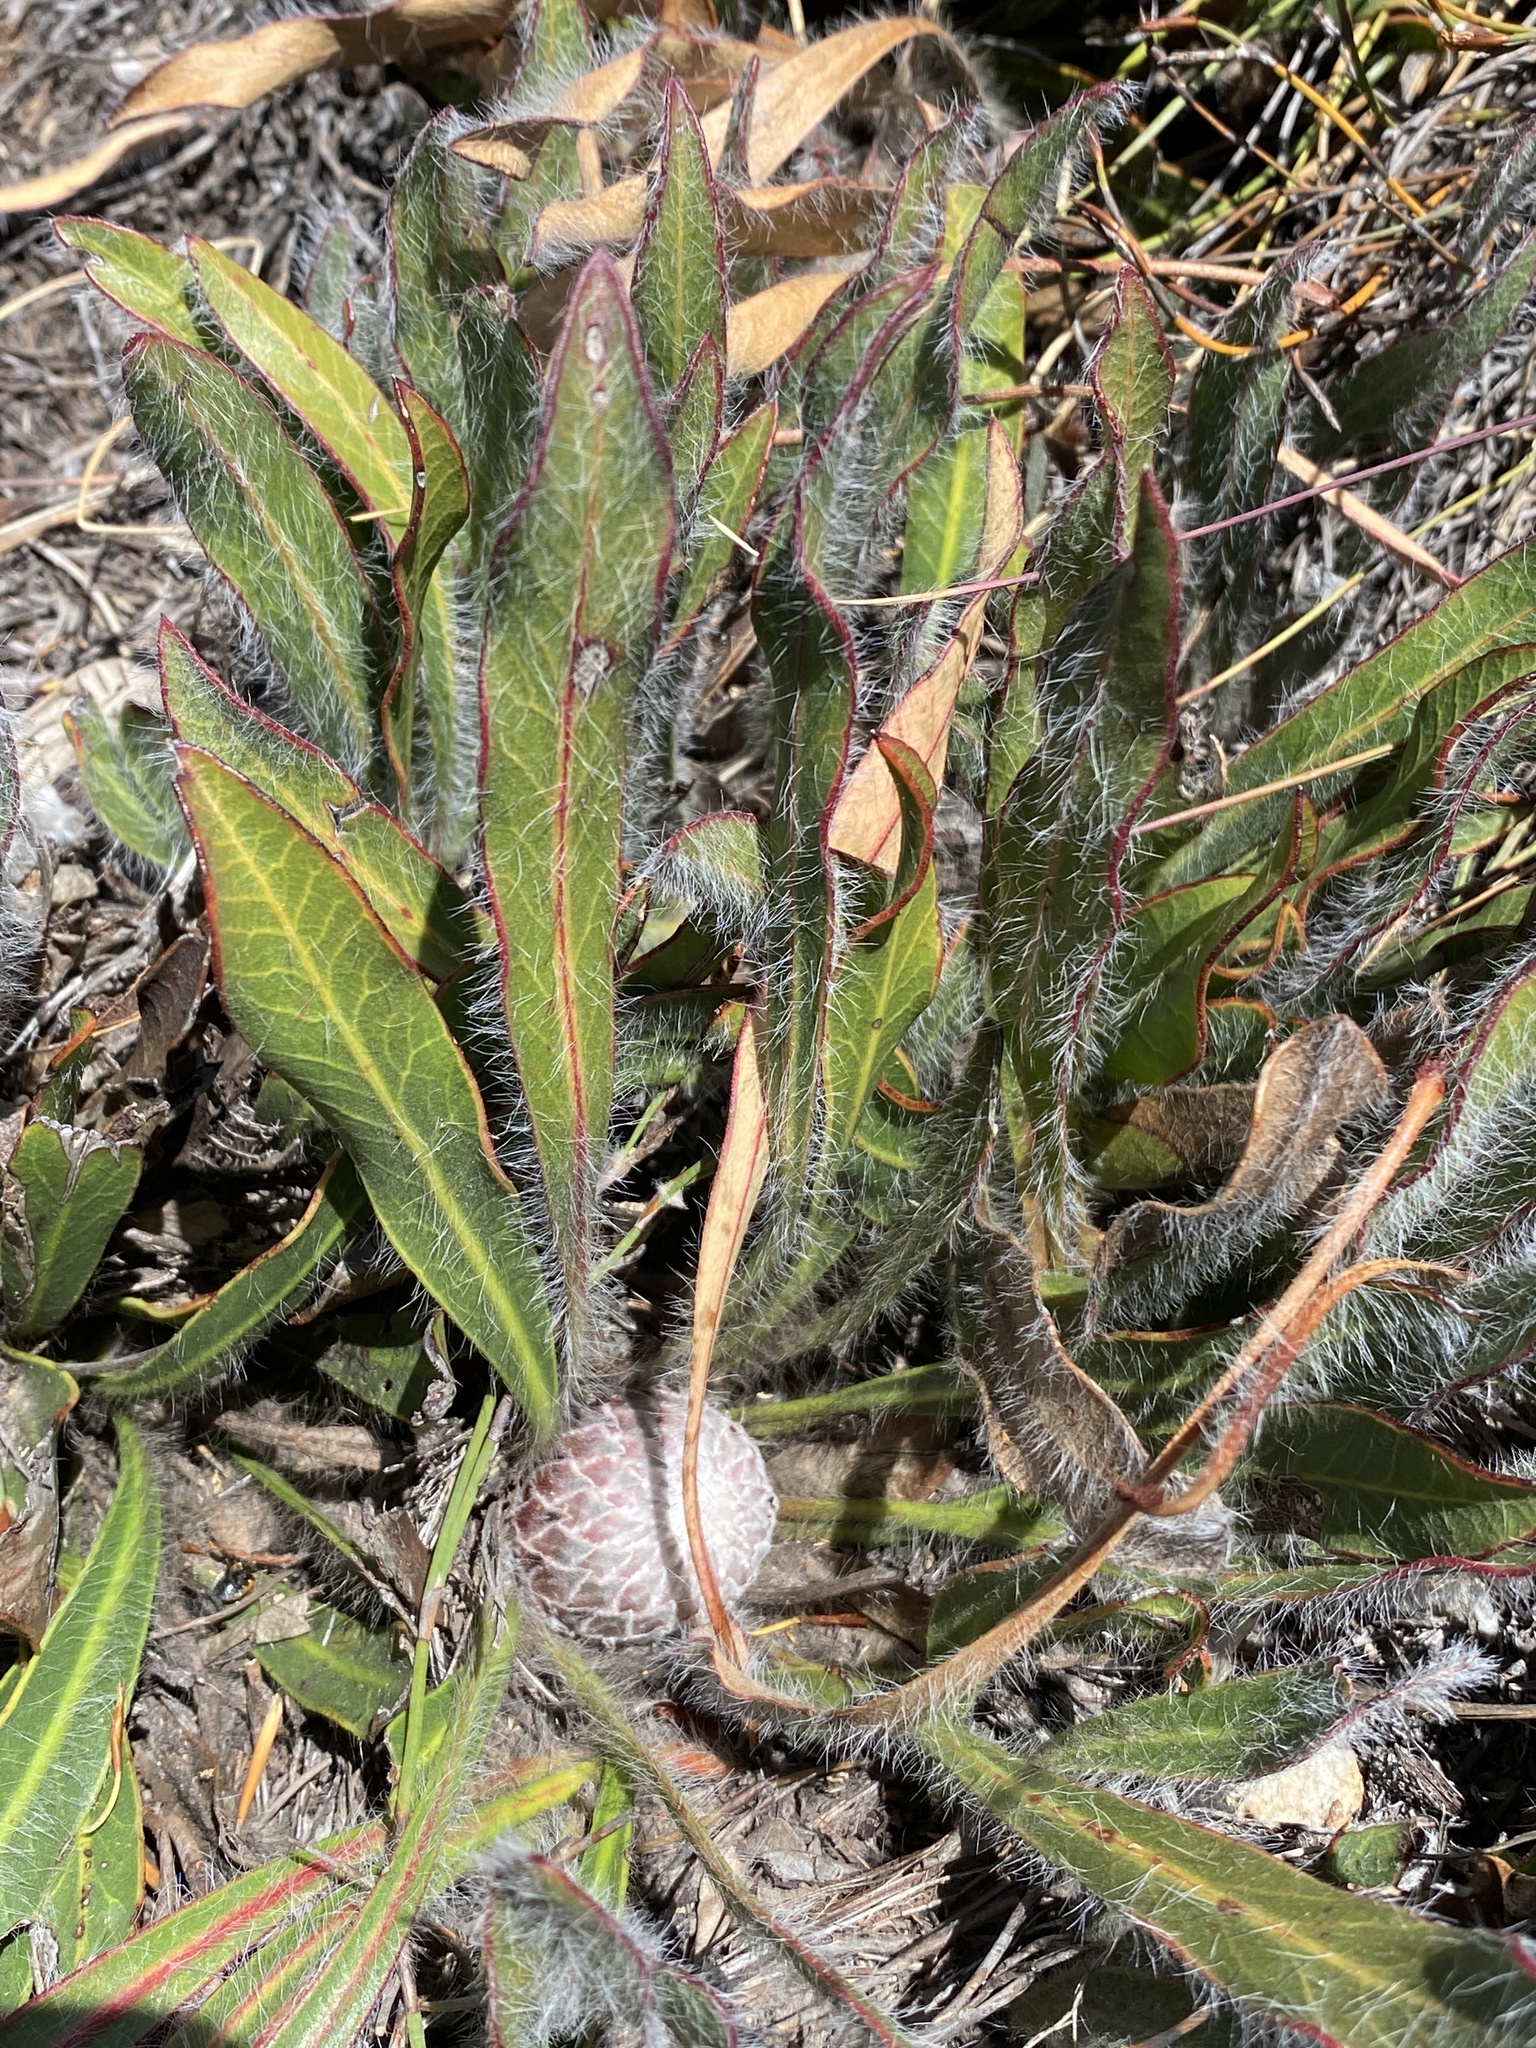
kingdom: Plantae
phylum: Tracheophyta
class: Magnoliopsida
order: Proteales
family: Proteaceae
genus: Protea
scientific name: Protea scabriuscula
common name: Hoary sugarbush
